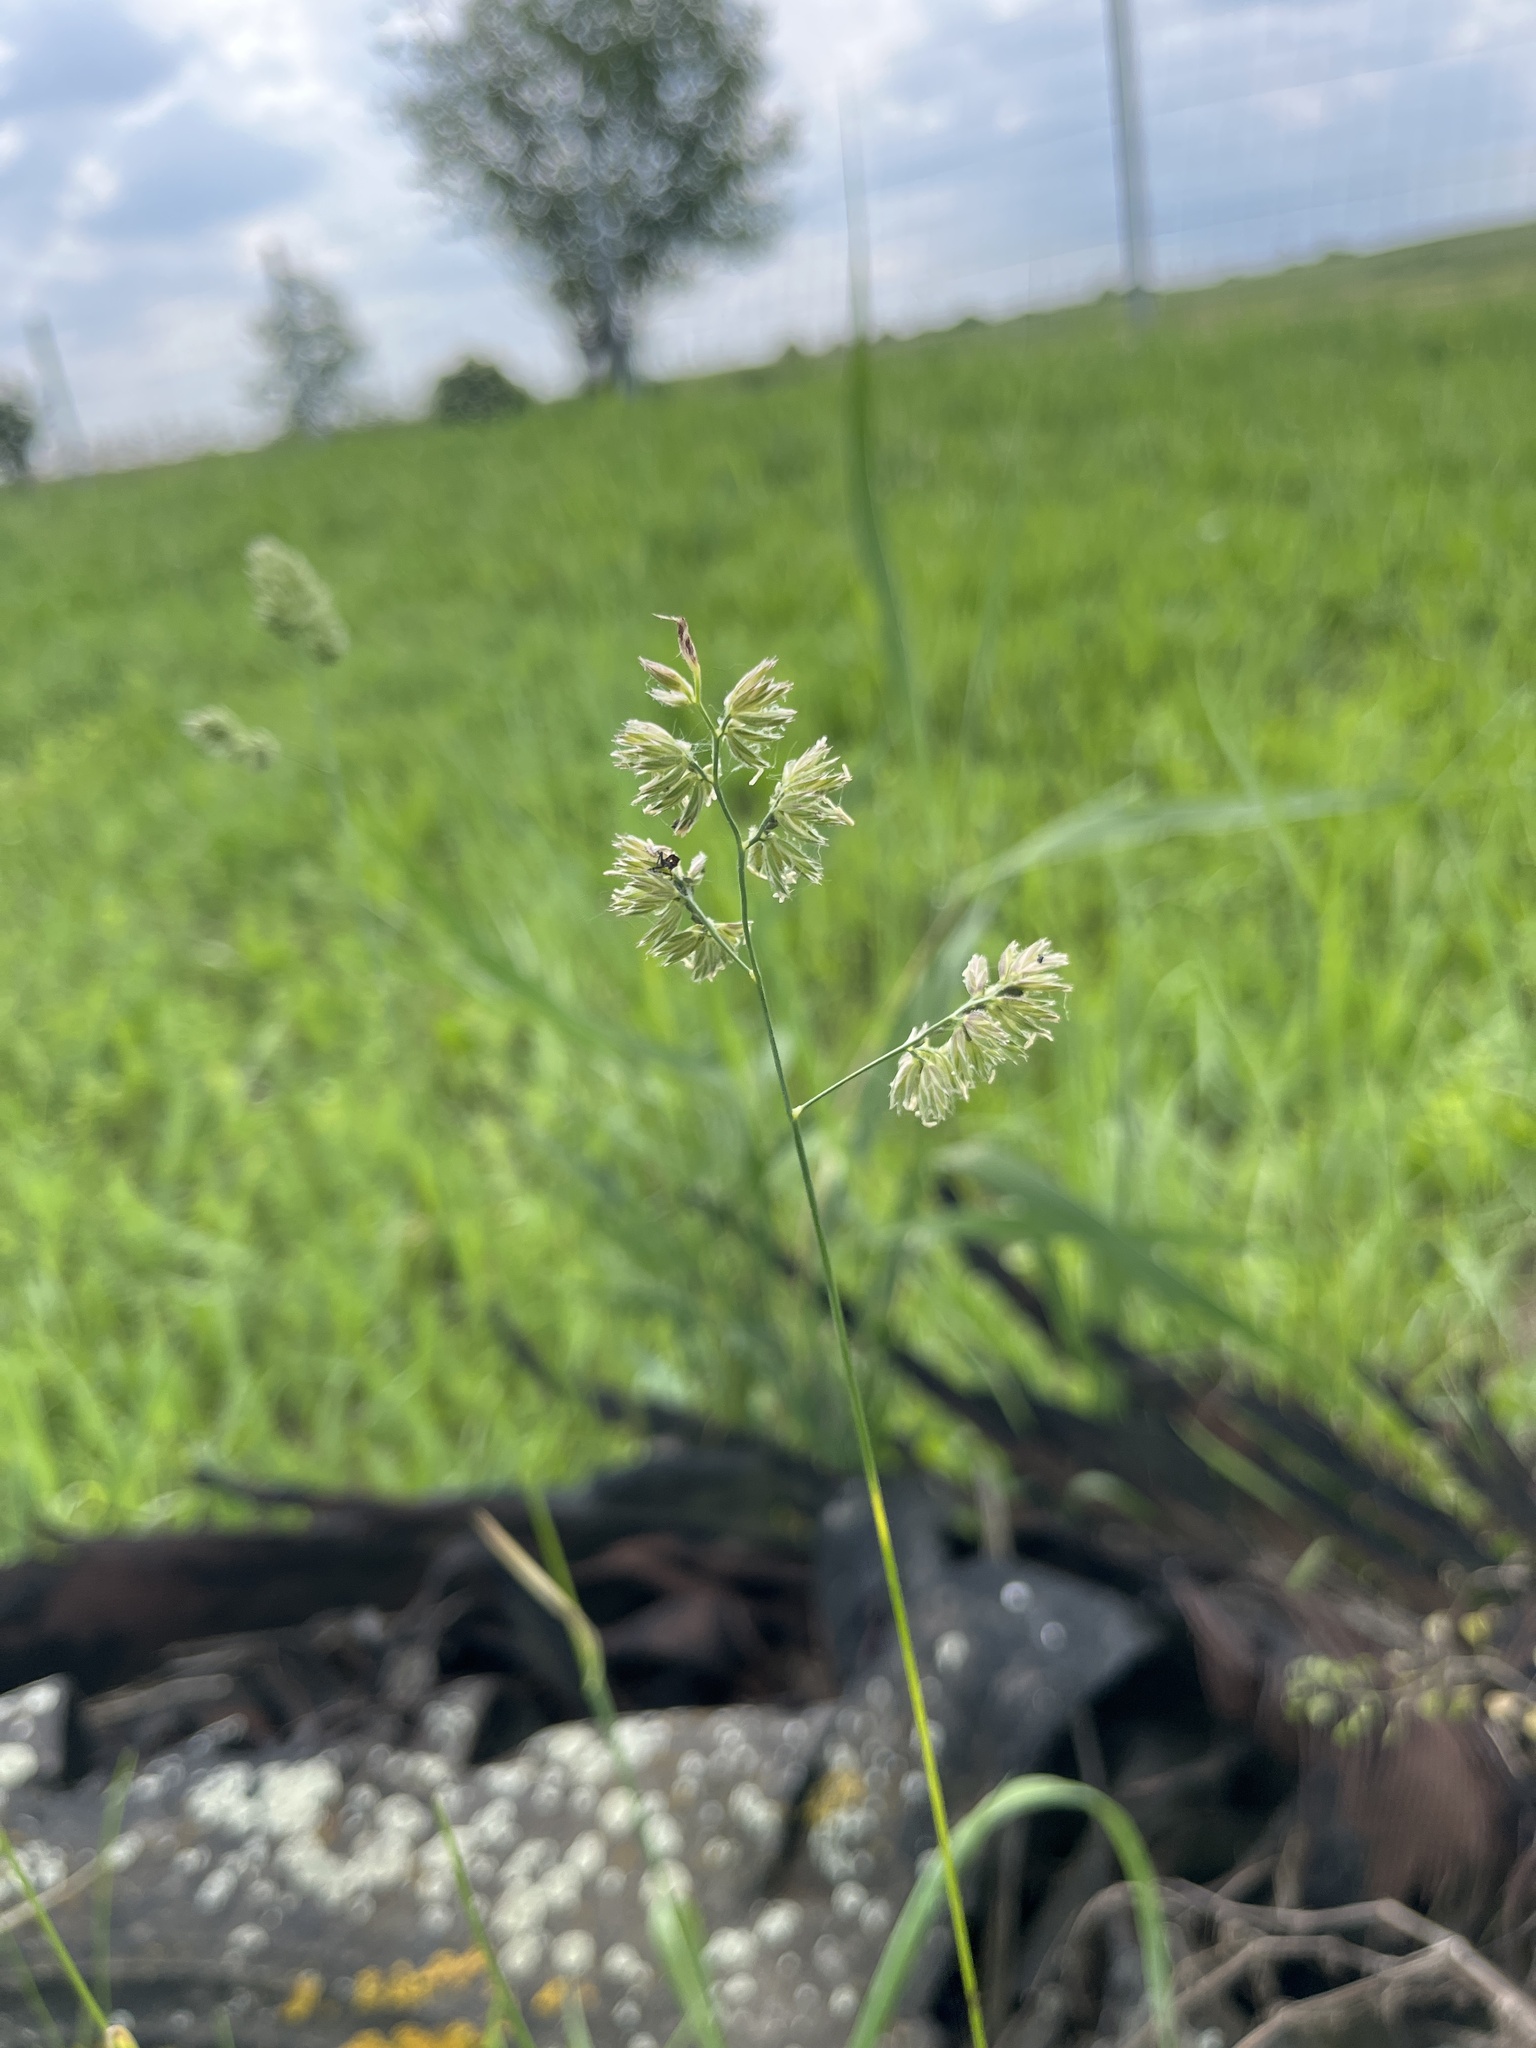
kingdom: Plantae
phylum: Tracheophyta
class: Liliopsida
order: Poales
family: Poaceae
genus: Dactylis
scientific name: Dactylis glomerata
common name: Orchardgrass
